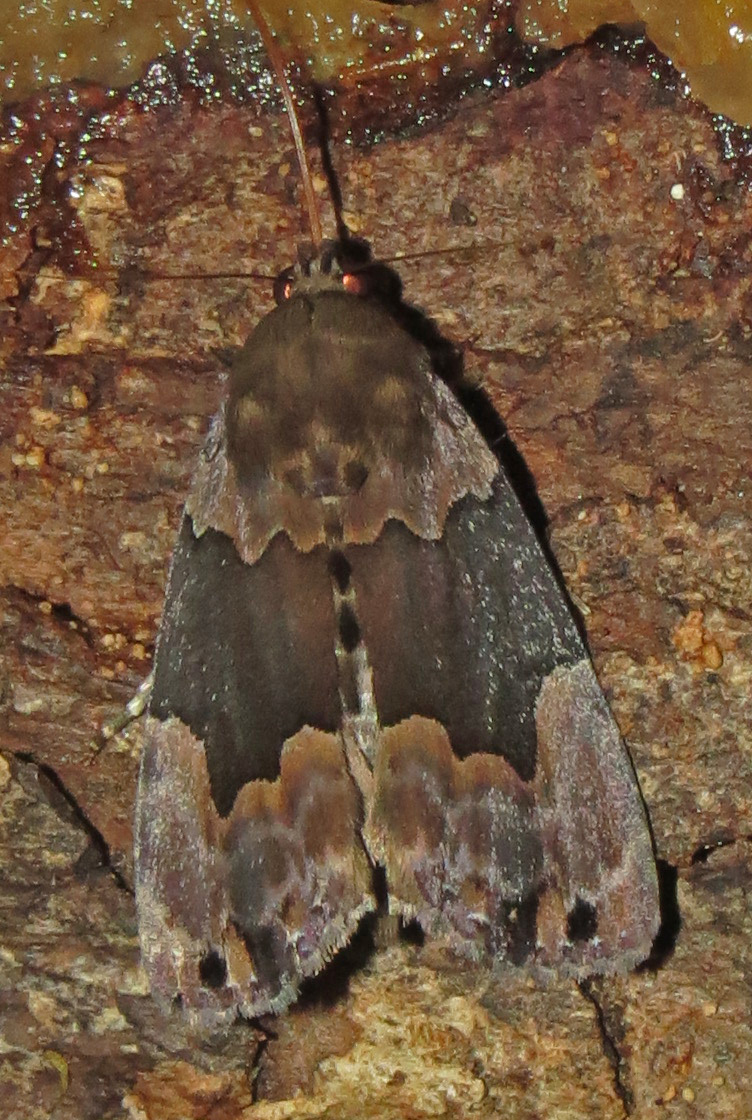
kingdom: Animalia
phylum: Arthropoda
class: Insecta
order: Lepidoptera
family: Erebidae
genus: Dinumma
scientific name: Dinumma deponens
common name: Purplish moth
